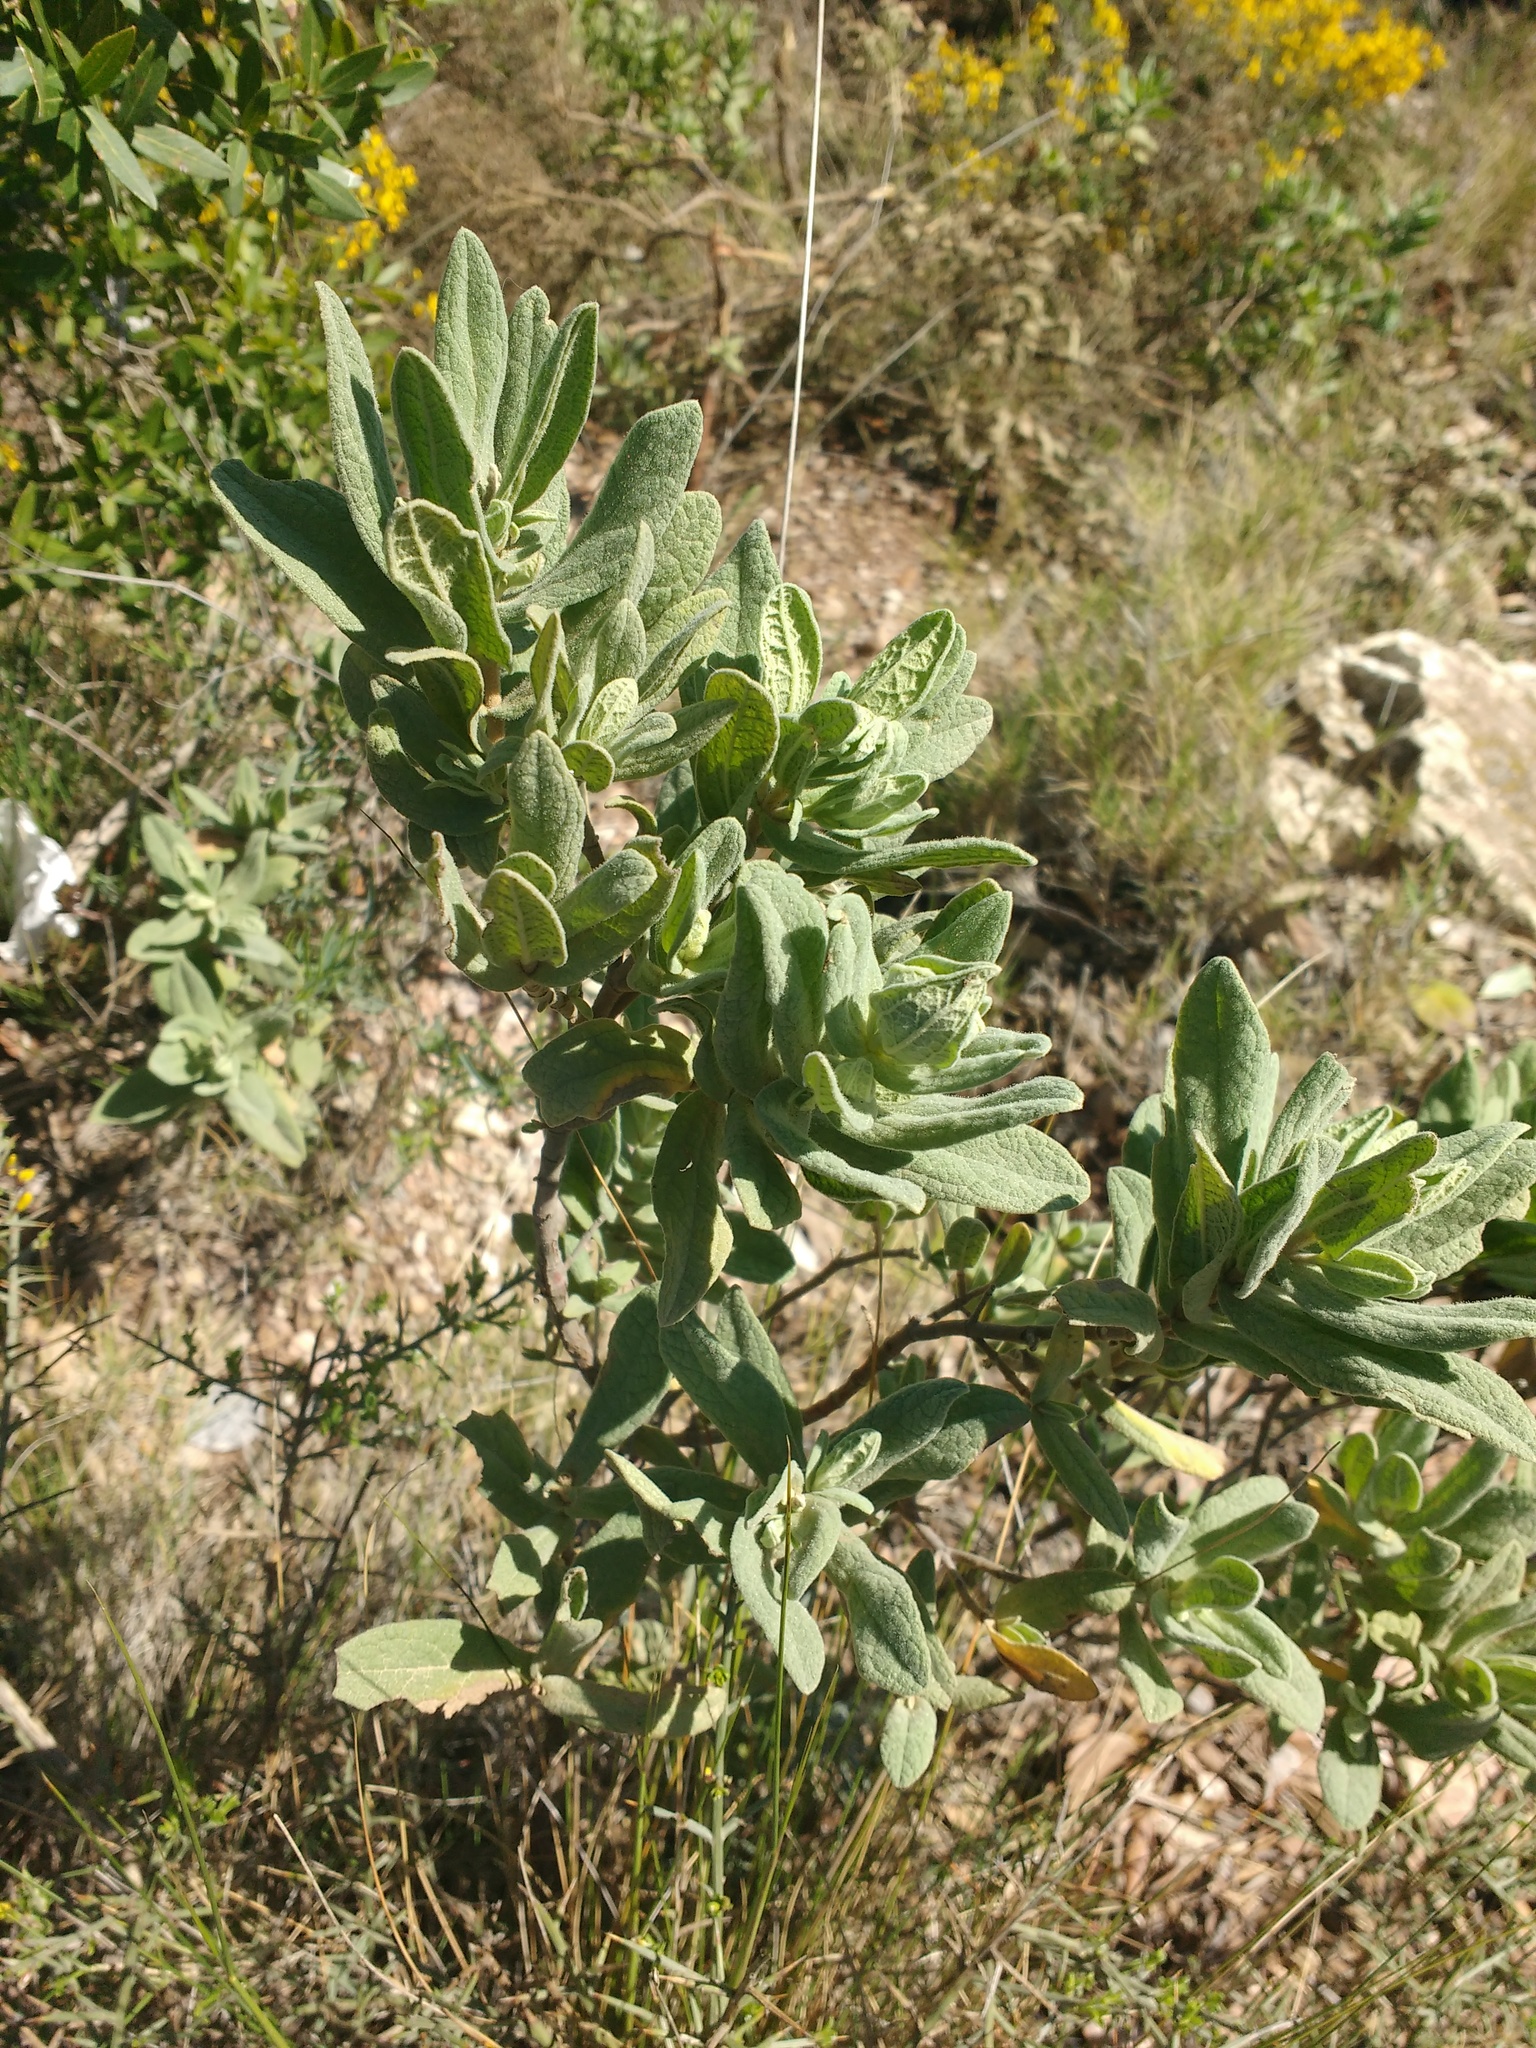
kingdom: Plantae
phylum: Tracheophyta
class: Magnoliopsida
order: Malvales
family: Cistaceae
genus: Cistus
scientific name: Cistus albidus
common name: White-leaf rock-rose
